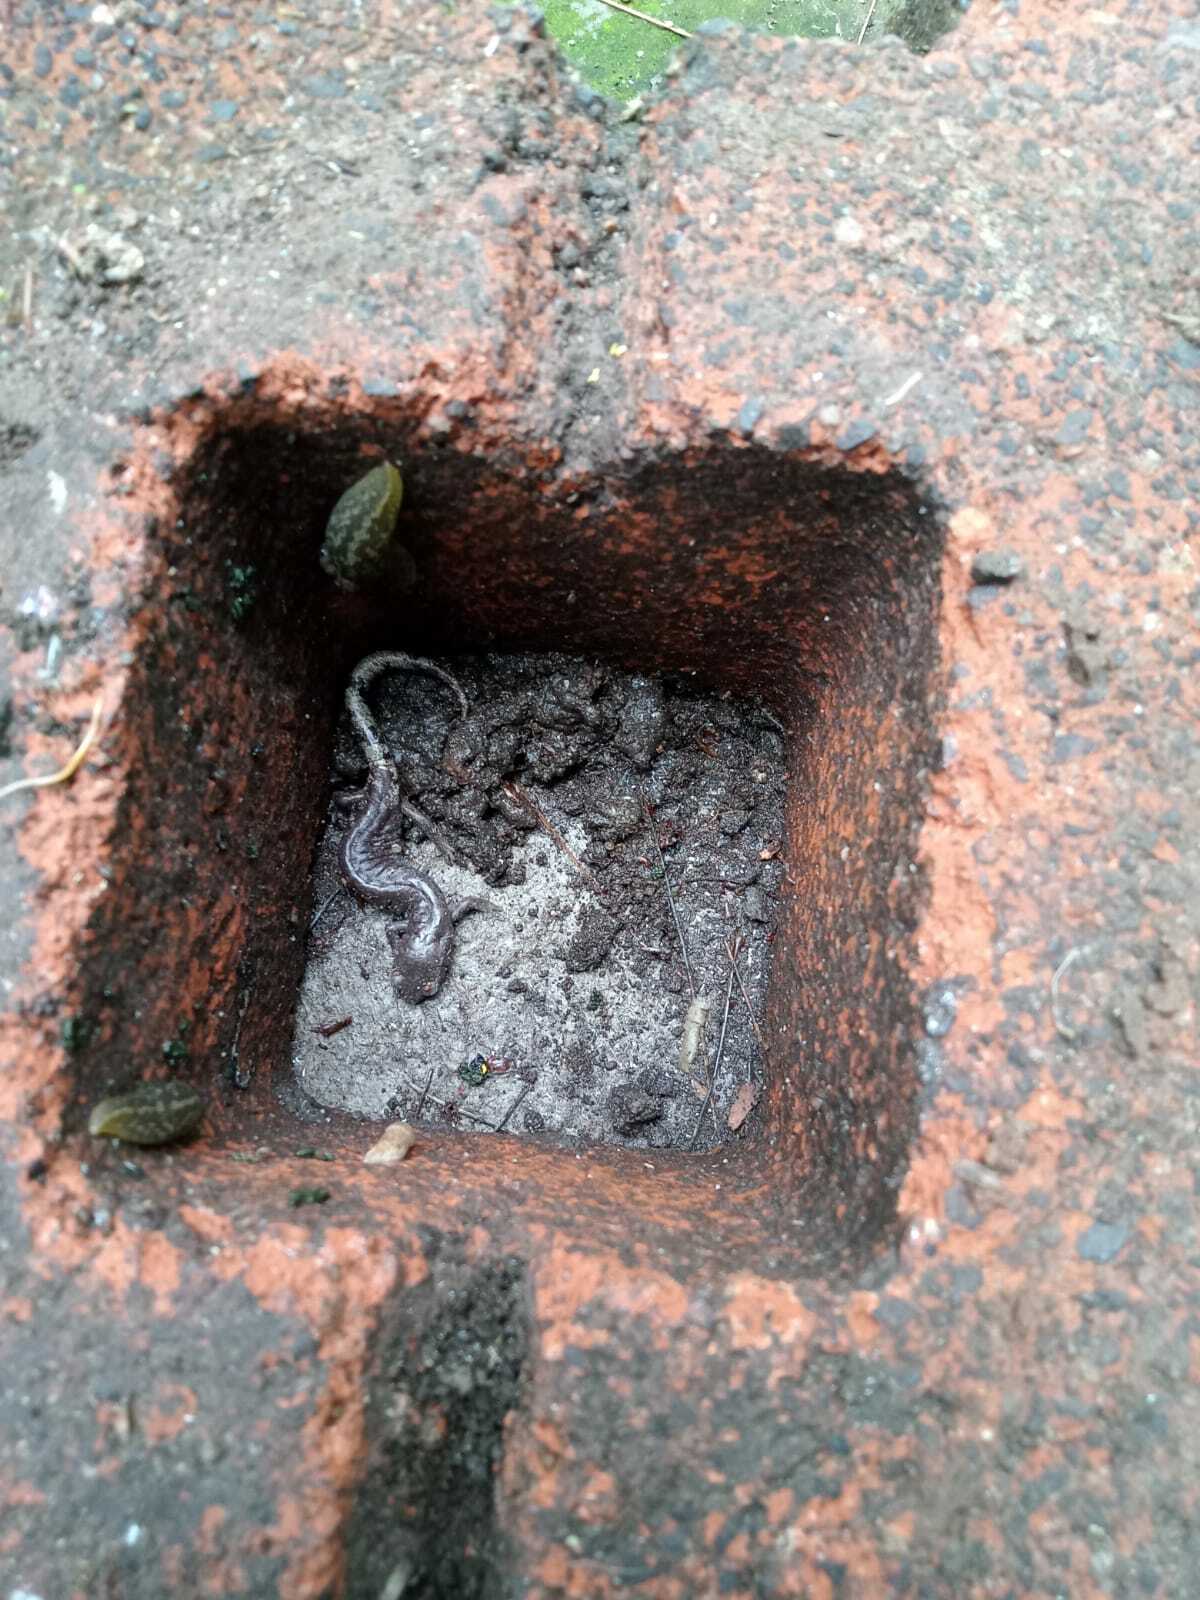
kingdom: Animalia
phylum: Chordata
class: Amphibia
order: Caudata
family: Plethodontidae
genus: Aquiloeurycea
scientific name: Aquiloeurycea cephalica
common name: Chunky false brook salamander
